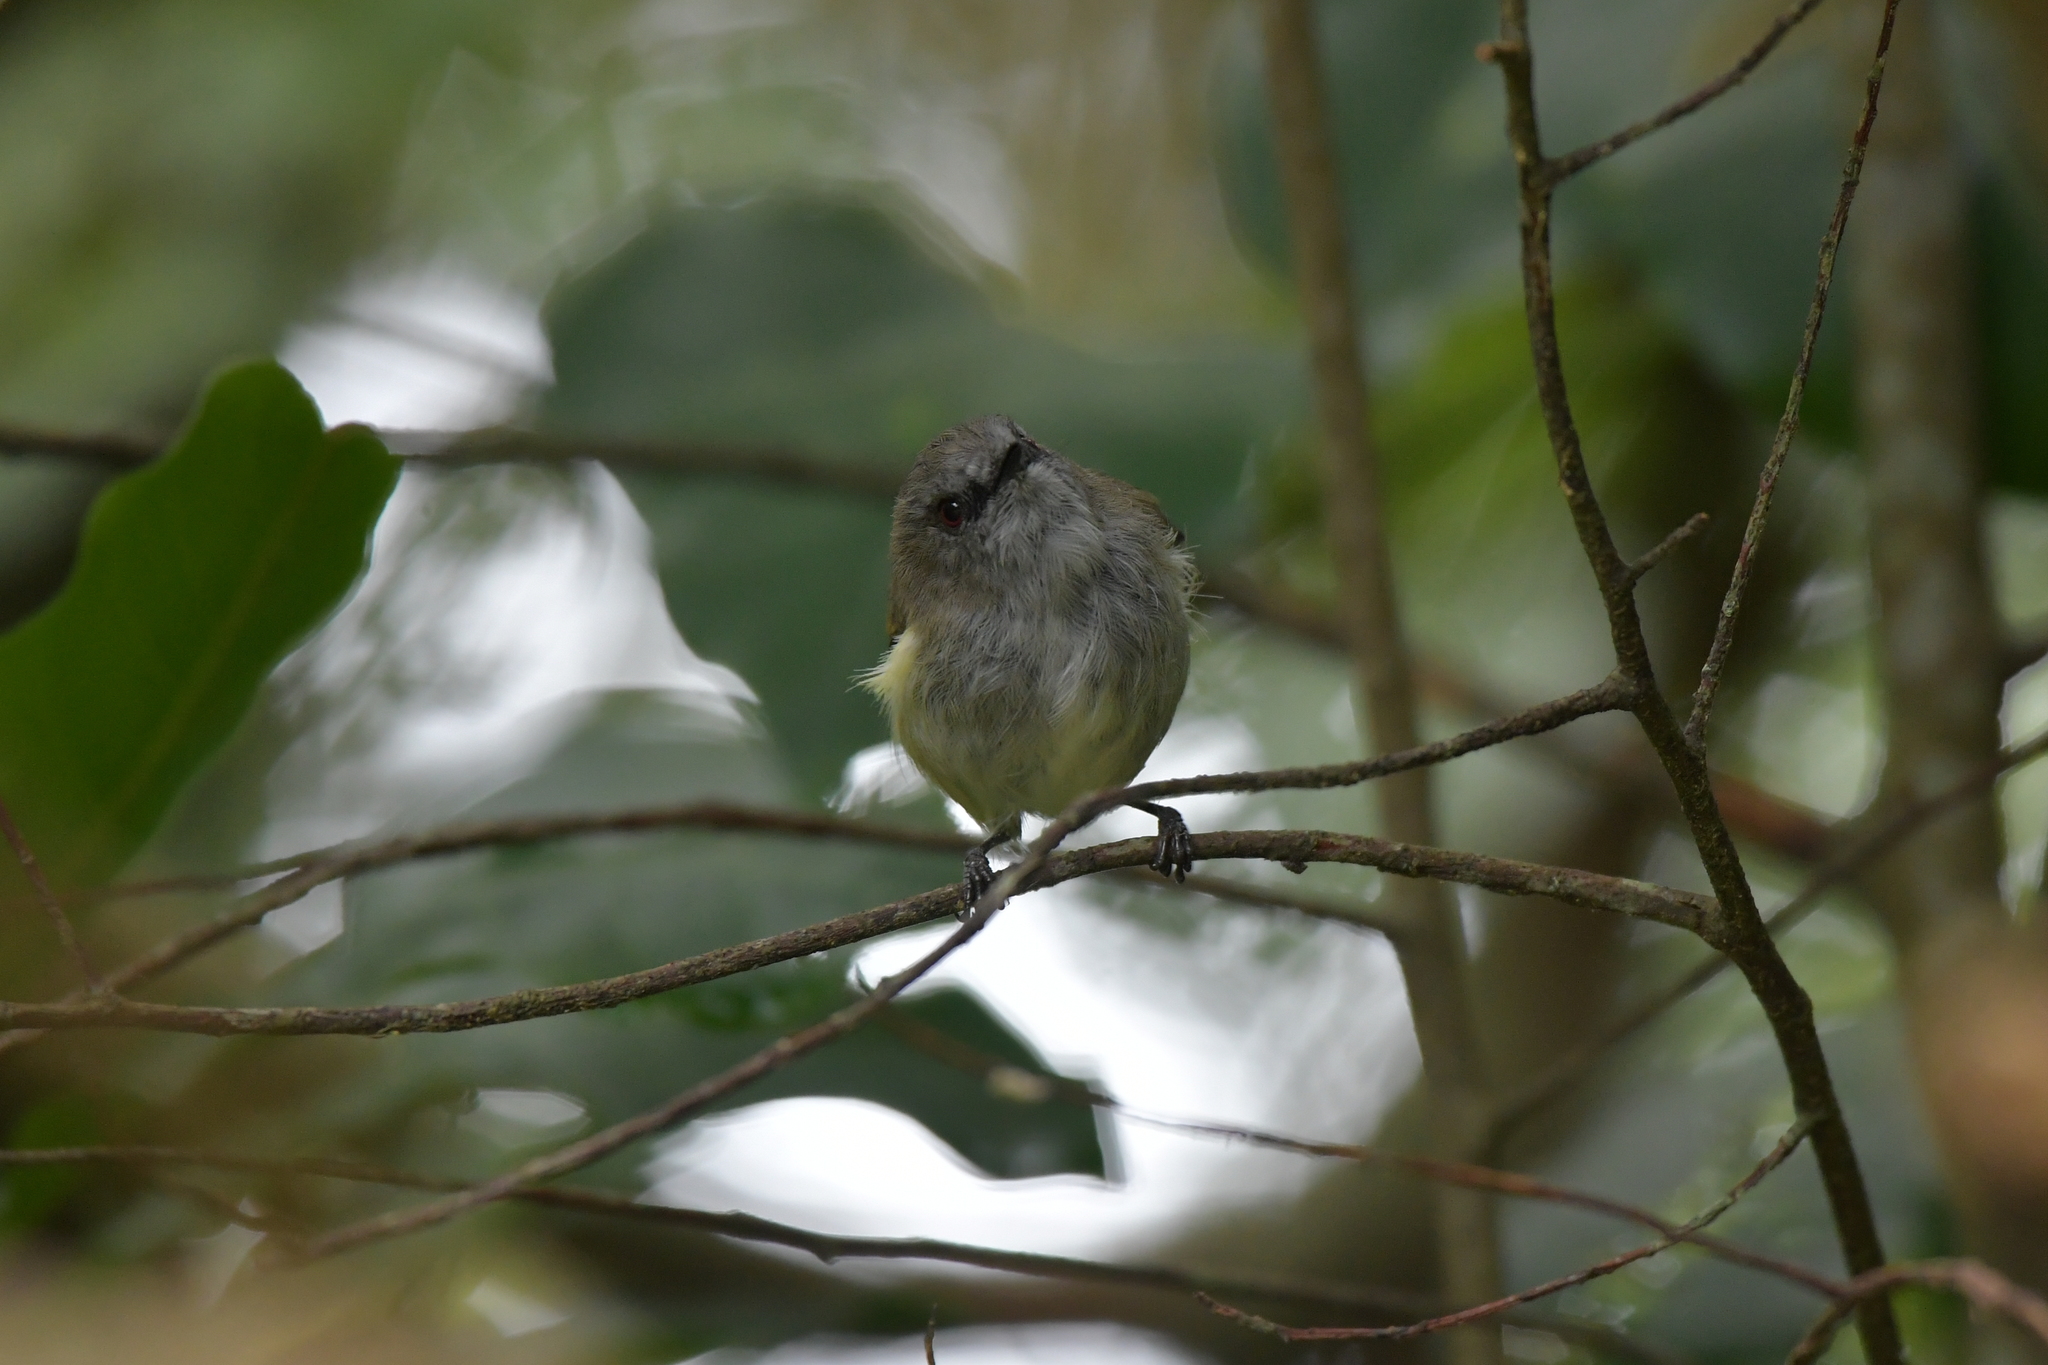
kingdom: Animalia
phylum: Chordata
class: Aves
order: Passeriformes
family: Acanthizidae
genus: Gerygone
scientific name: Gerygone igata
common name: Grey gerygone
